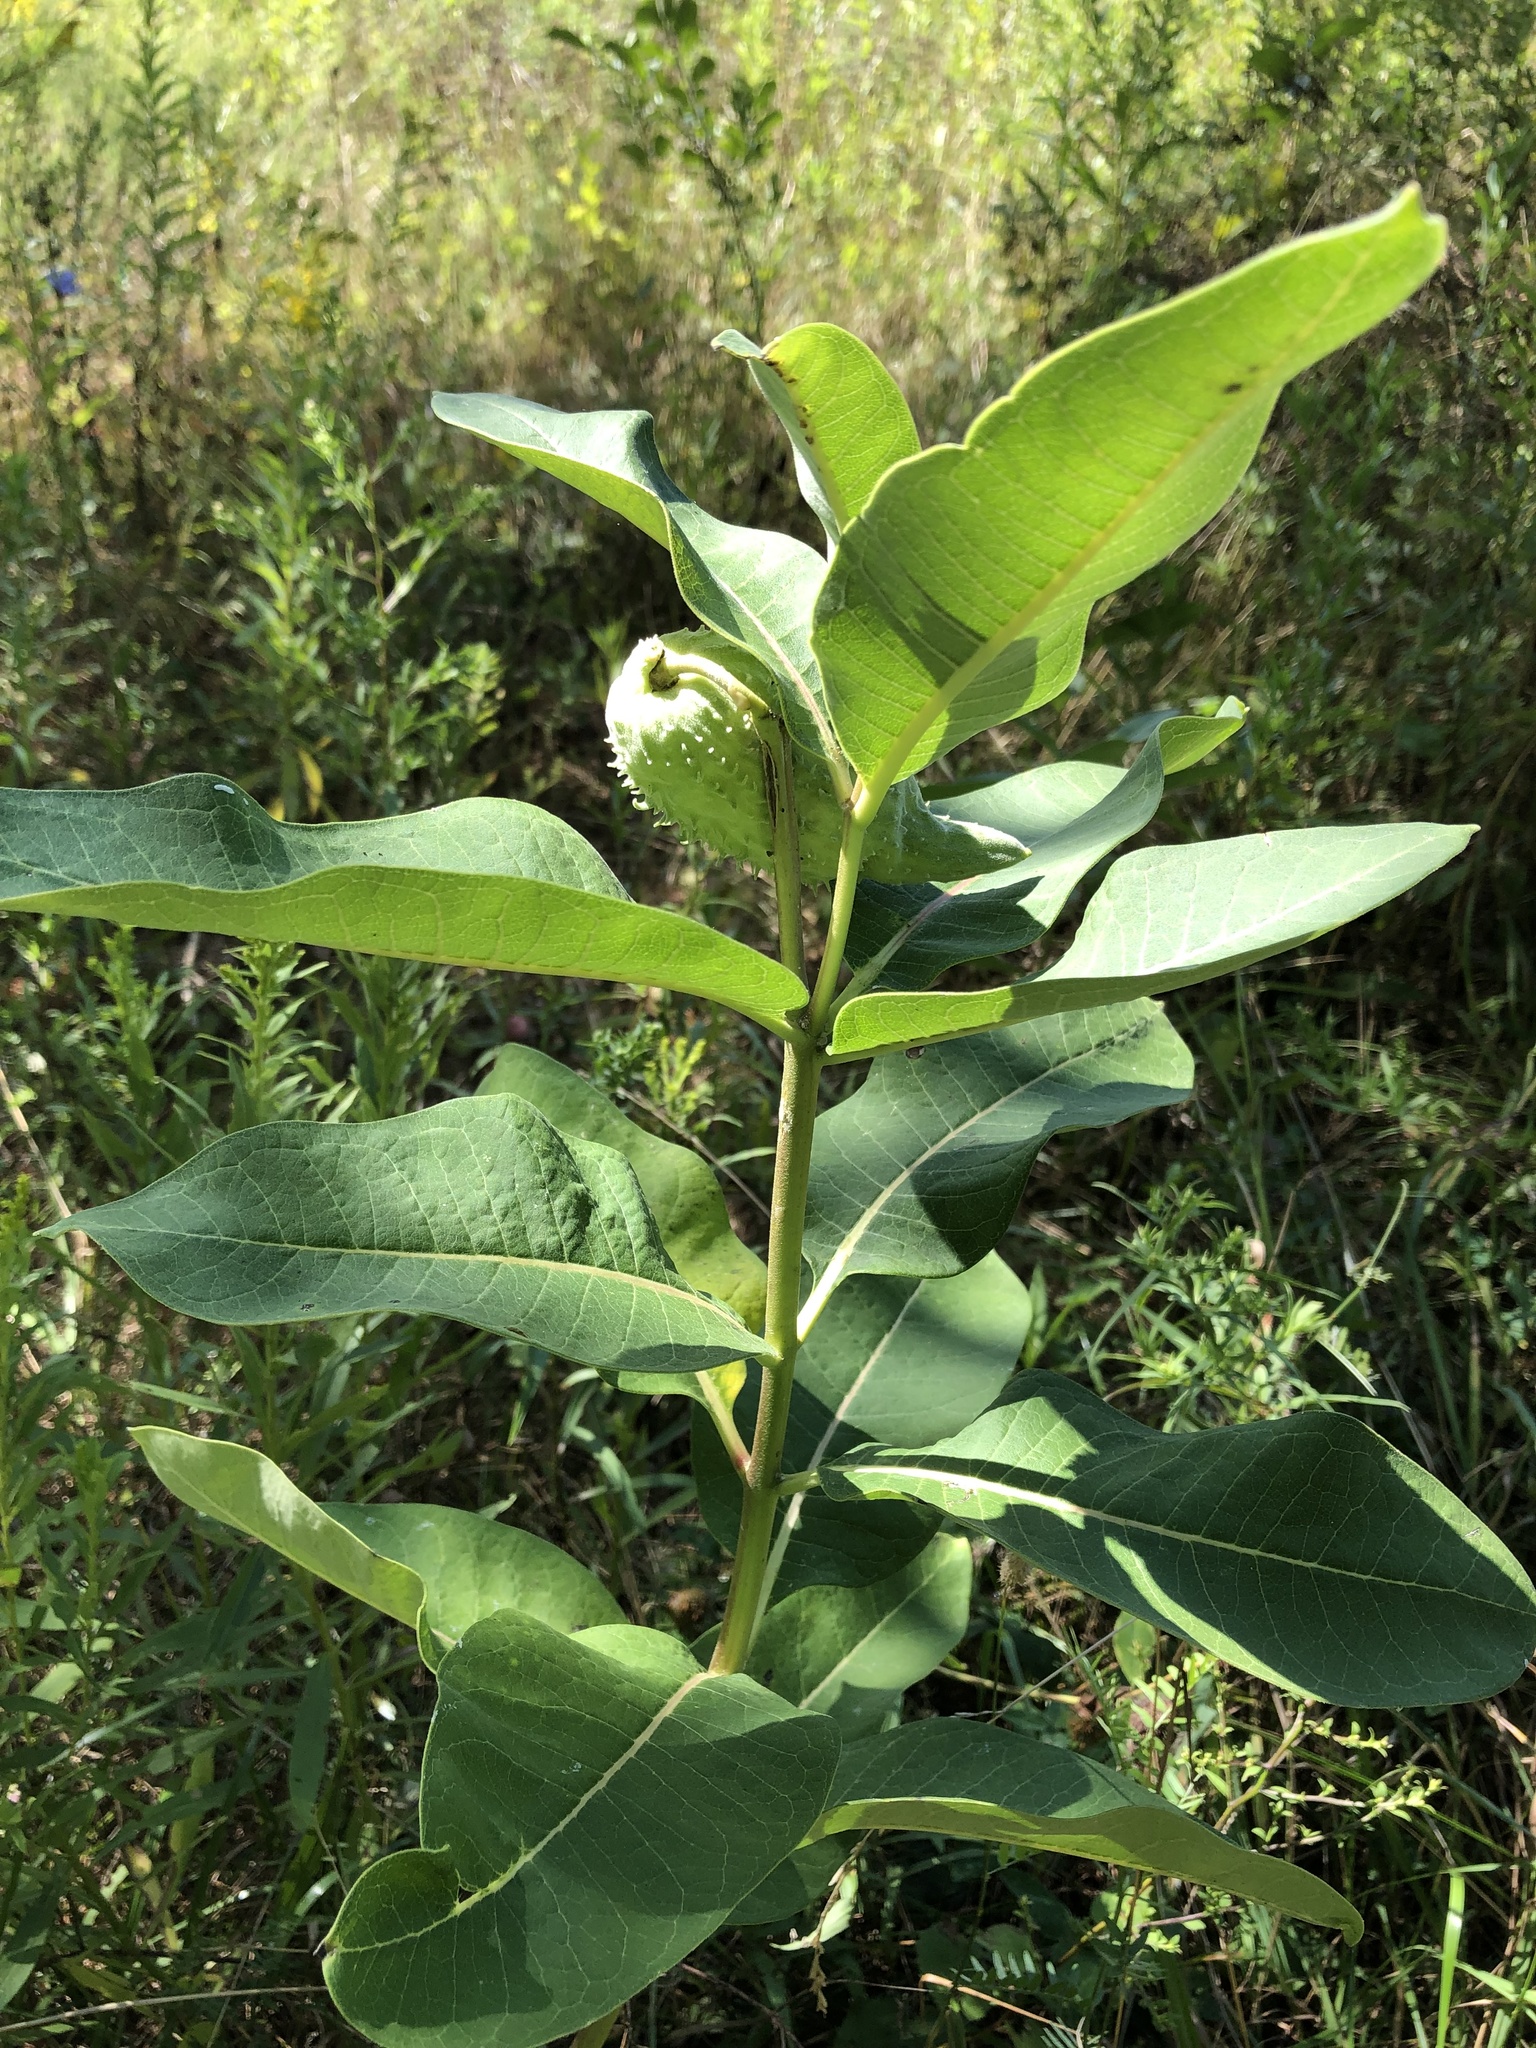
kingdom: Plantae
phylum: Tracheophyta
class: Magnoliopsida
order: Gentianales
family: Apocynaceae
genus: Asclepias
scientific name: Asclepias syriaca
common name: Common milkweed
